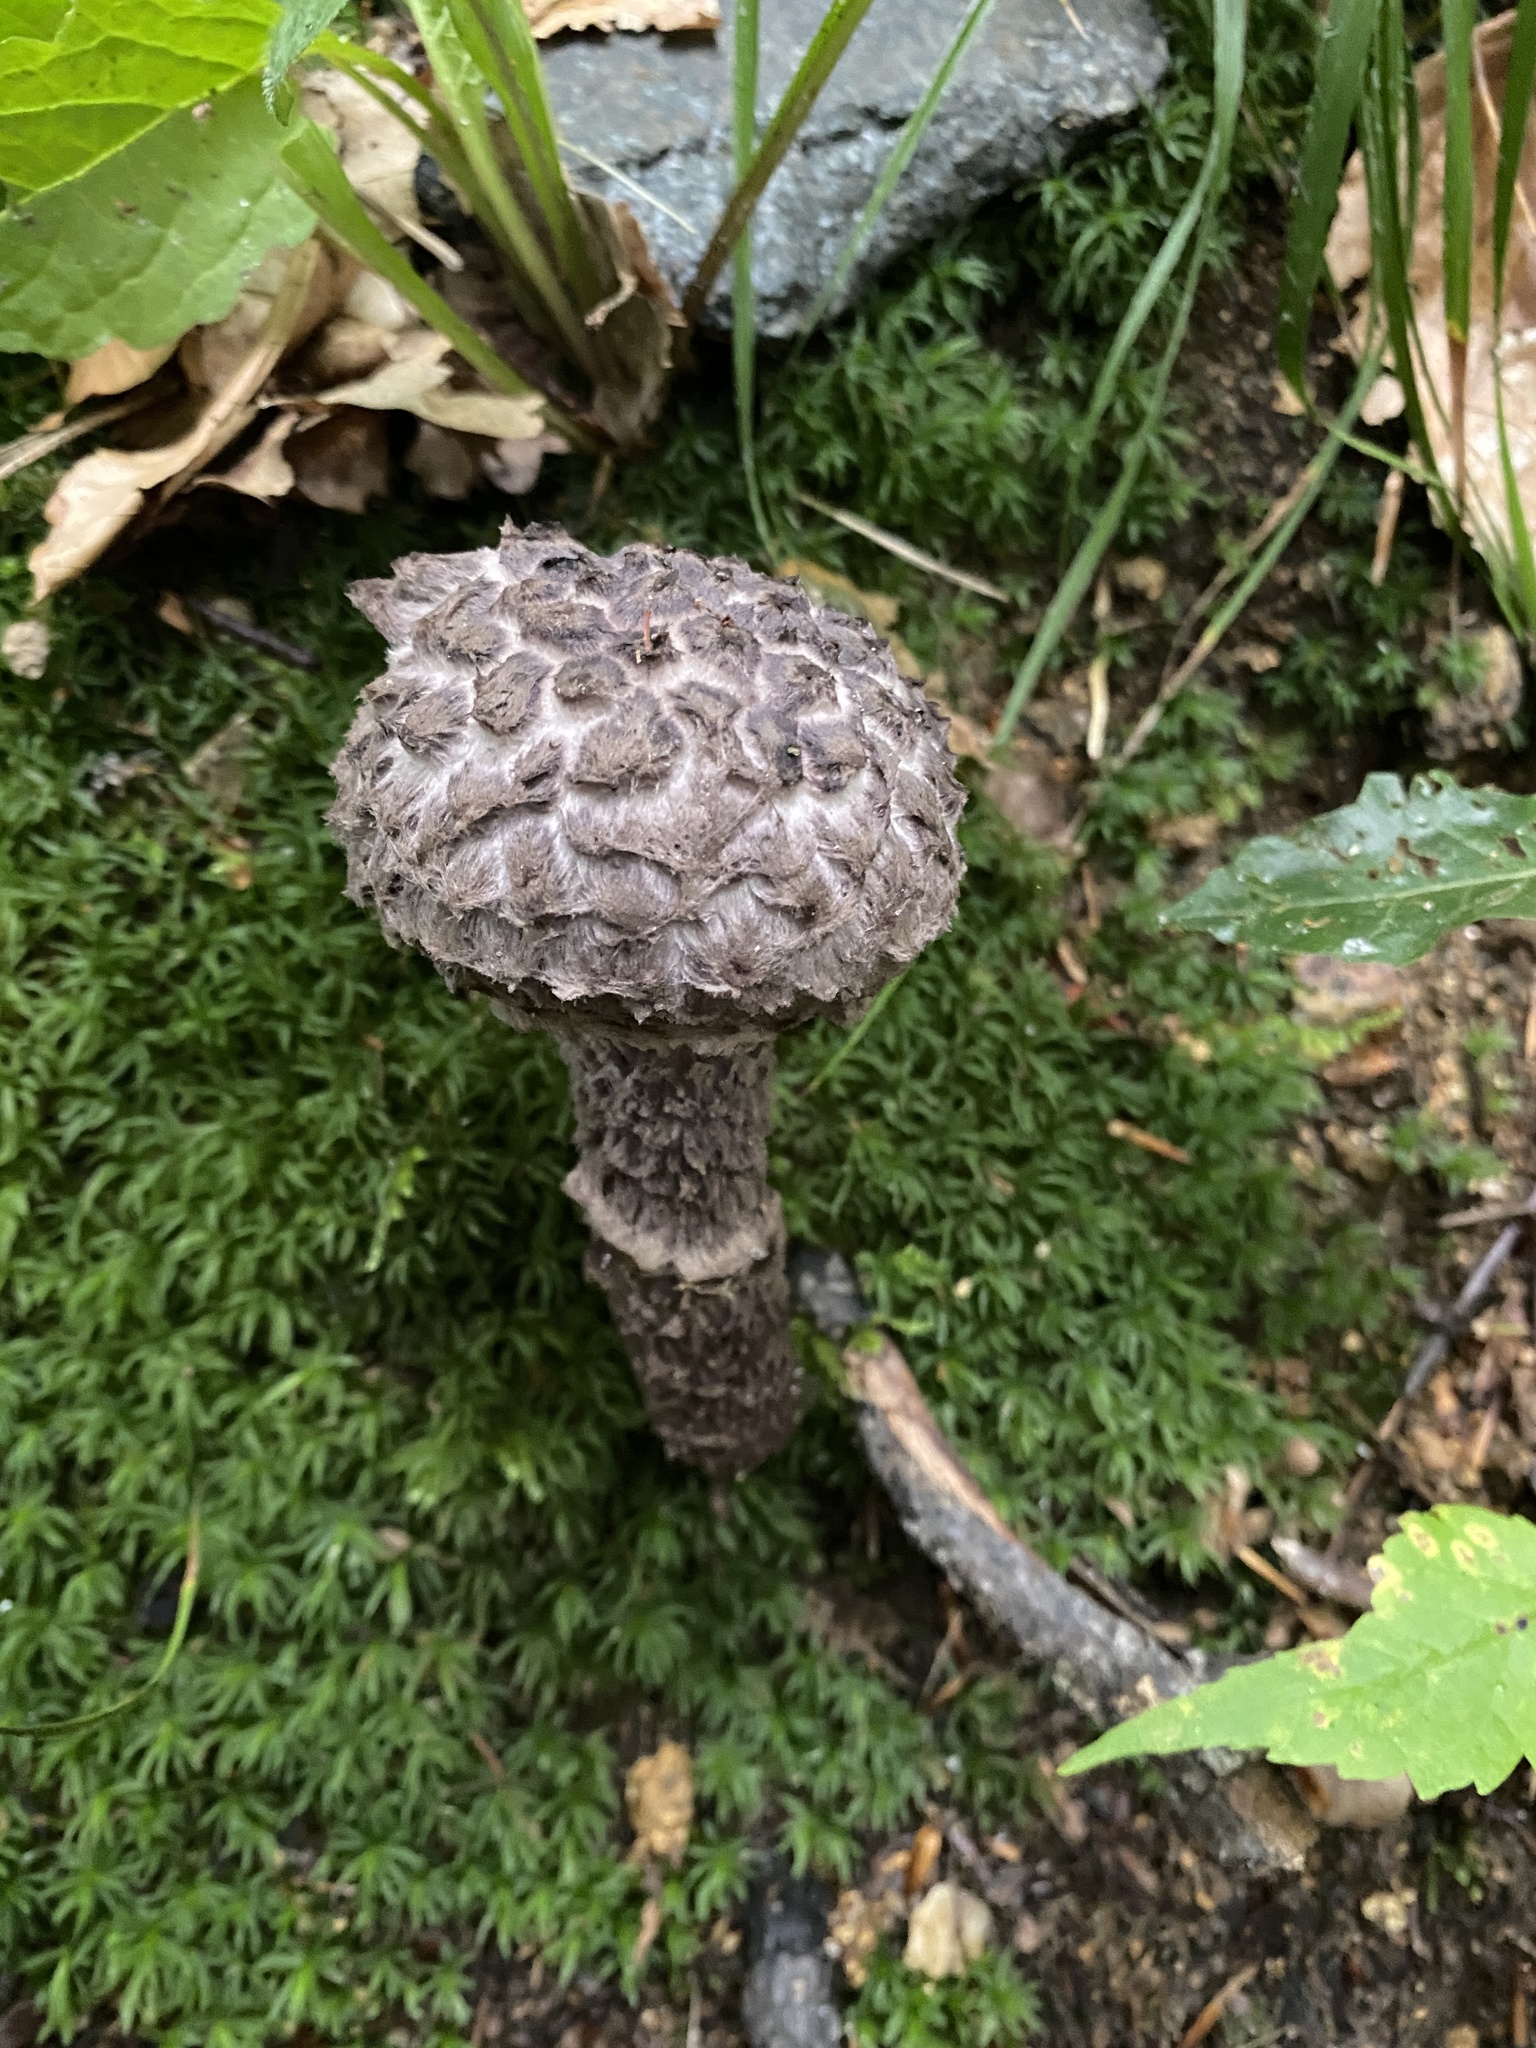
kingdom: Fungi
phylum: Basidiomycota
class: Agaricomycetes
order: Boletales
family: Boletaceae
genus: Strobilomyces
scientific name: Strobilomyces strobilaceus
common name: Old man of the woods
